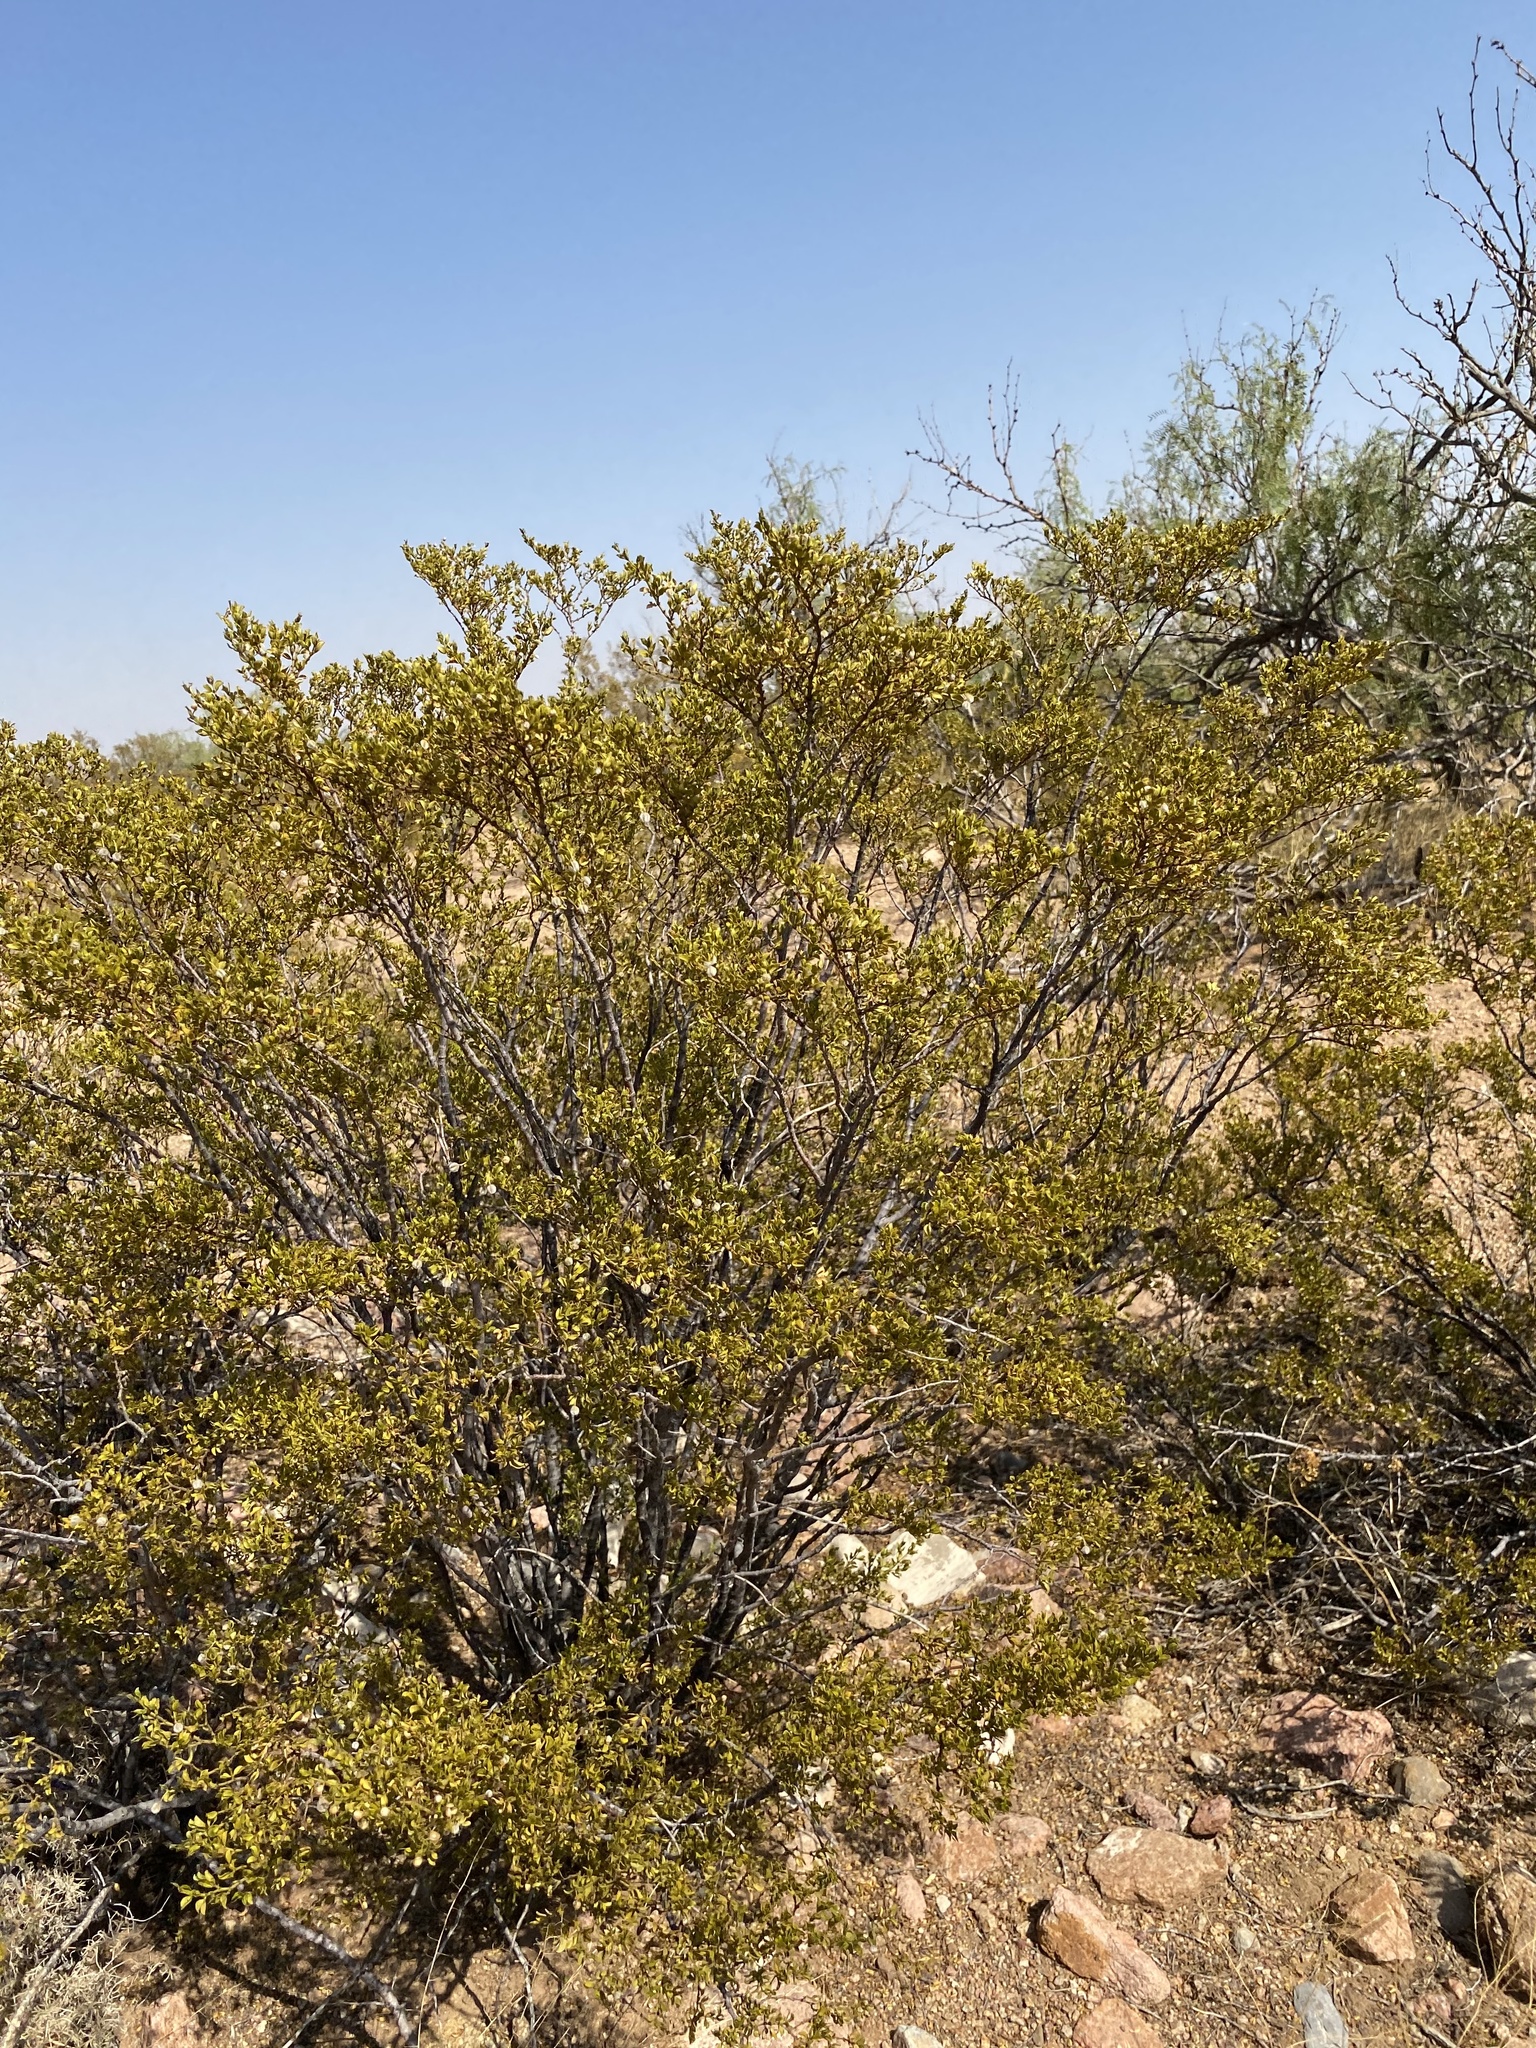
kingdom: Plantae
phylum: Tracheophyta
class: Magnoliopsida
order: Zygophyllales
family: Zygophyllaceae
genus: Larrea
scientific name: Larrea tridentata
